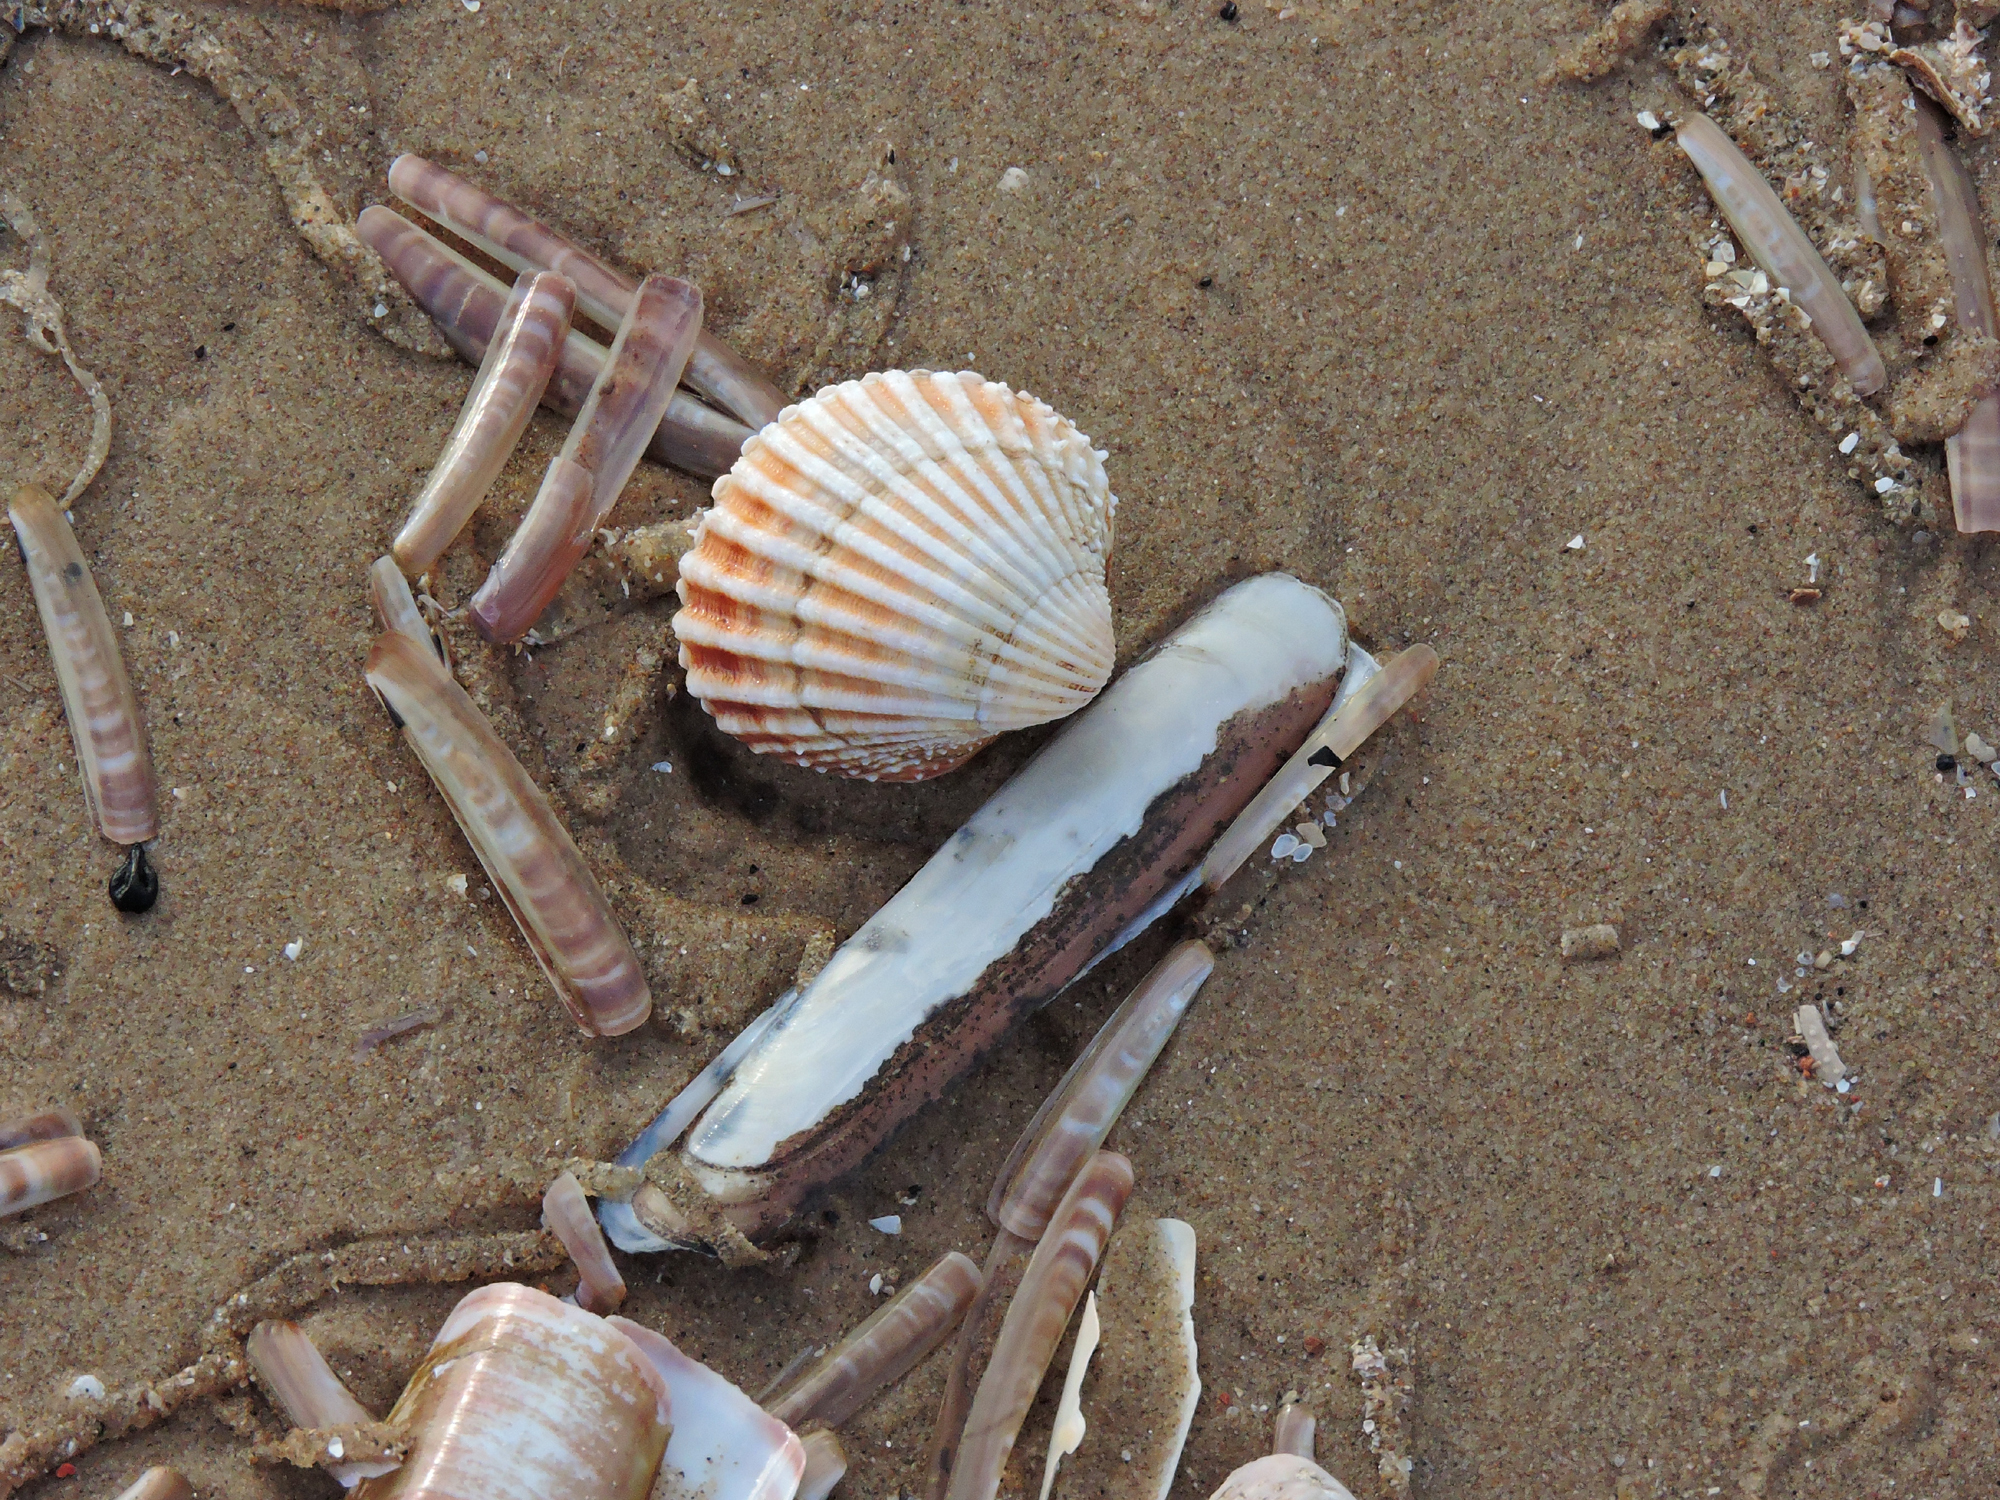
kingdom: Animalia
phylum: Mollusca
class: Bivalvia
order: Cardiida
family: Cardiidae
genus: Acanthocardia
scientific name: Acanthocardia echinata
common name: Prickly cockle
